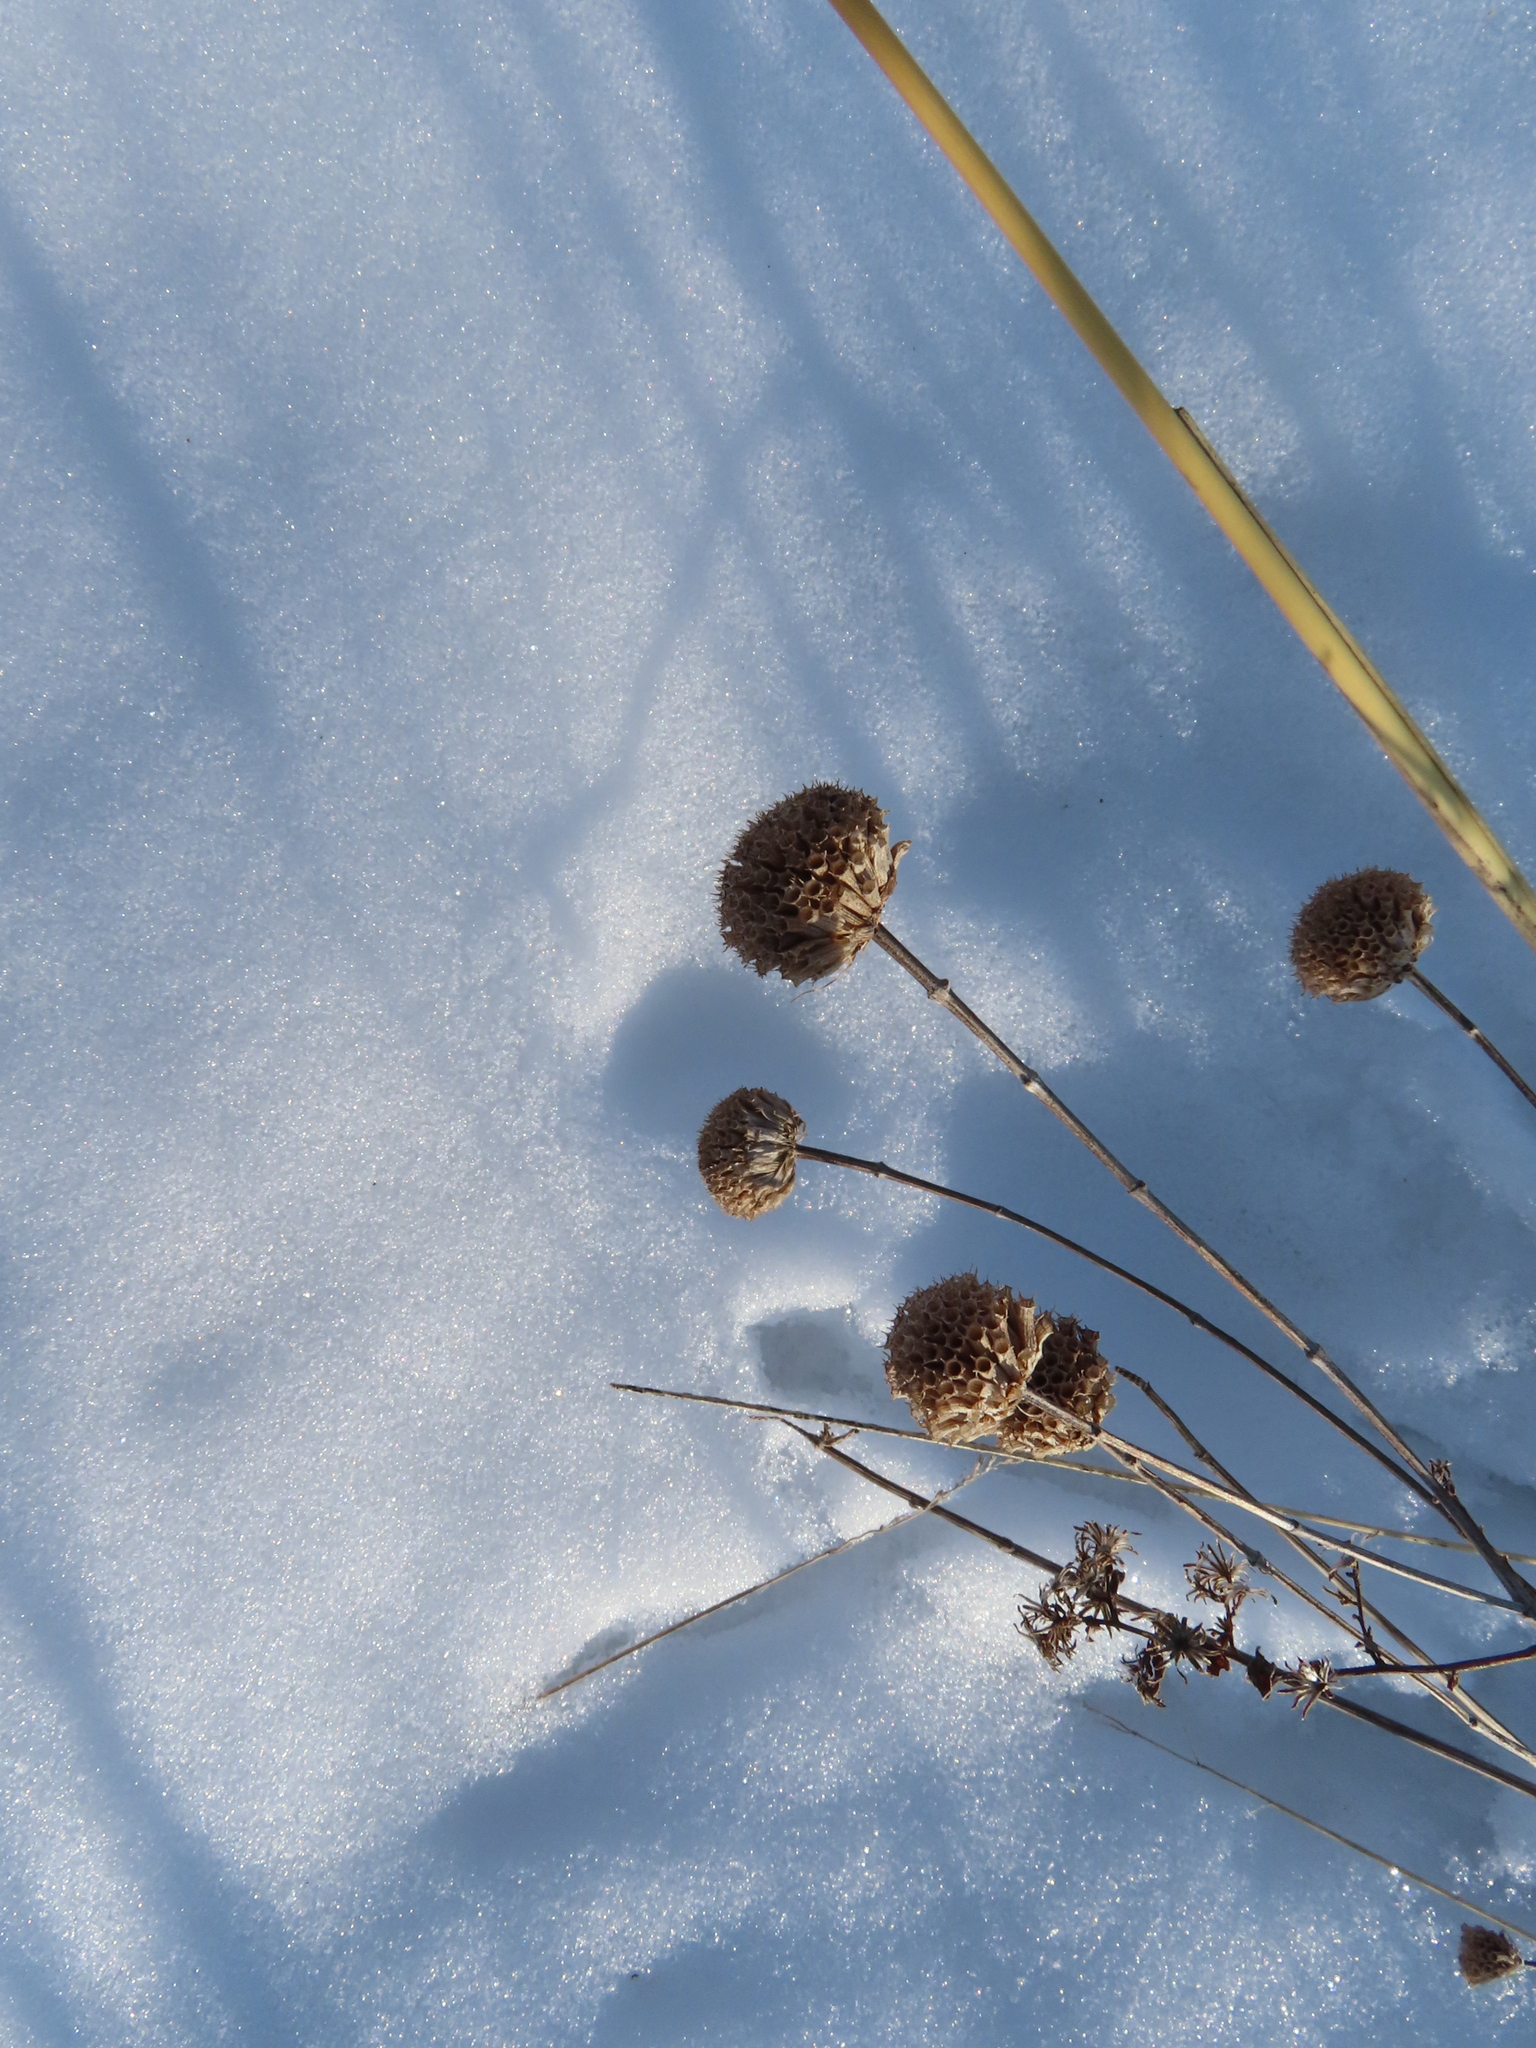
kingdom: Plantae
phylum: Tracheophyta
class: Magnoliopsida
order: Lamiales
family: Lamiaceae
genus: Monarda
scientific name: Monarda fistulosa
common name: Purple beebalm
